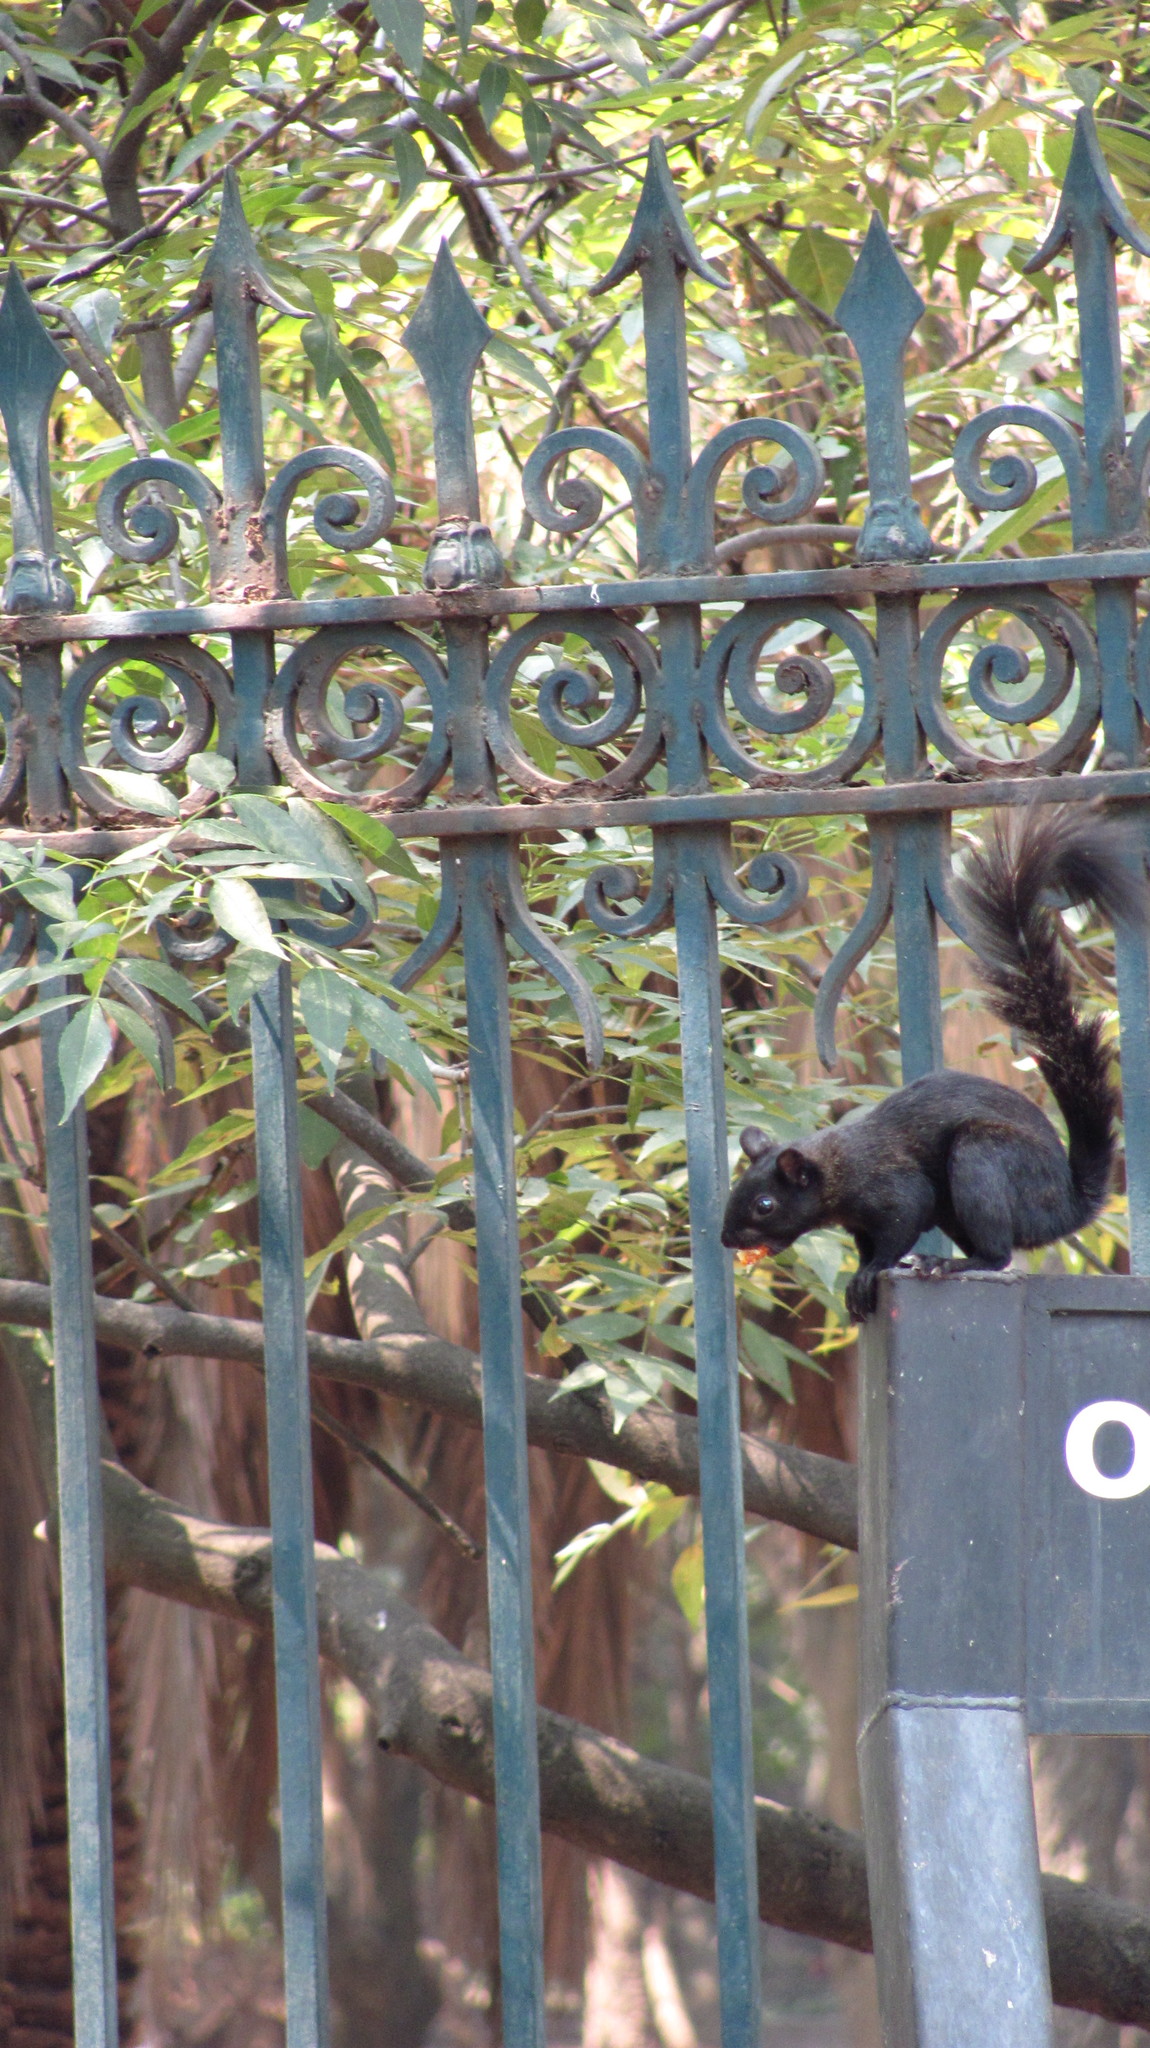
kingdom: Animalia
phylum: Chordata
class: Mammalia
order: Rodentia
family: Sciuridae
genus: Sciurus
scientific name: Sciurus aureogaster
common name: Red-bellied squirrel
